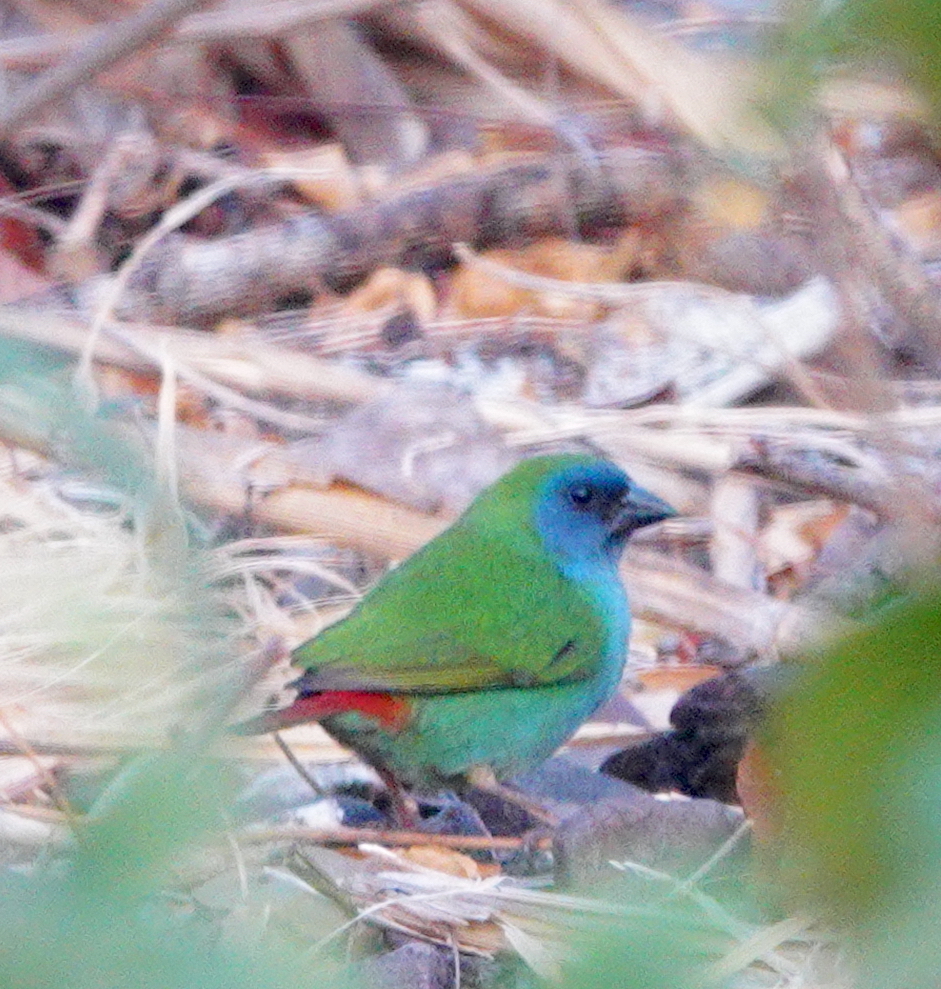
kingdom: Animalia
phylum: Chordata
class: Aves
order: Passeriformes
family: Estrildidae
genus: Erythrura
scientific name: Erythrura tricolor
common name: Tricolored parrotfinch
